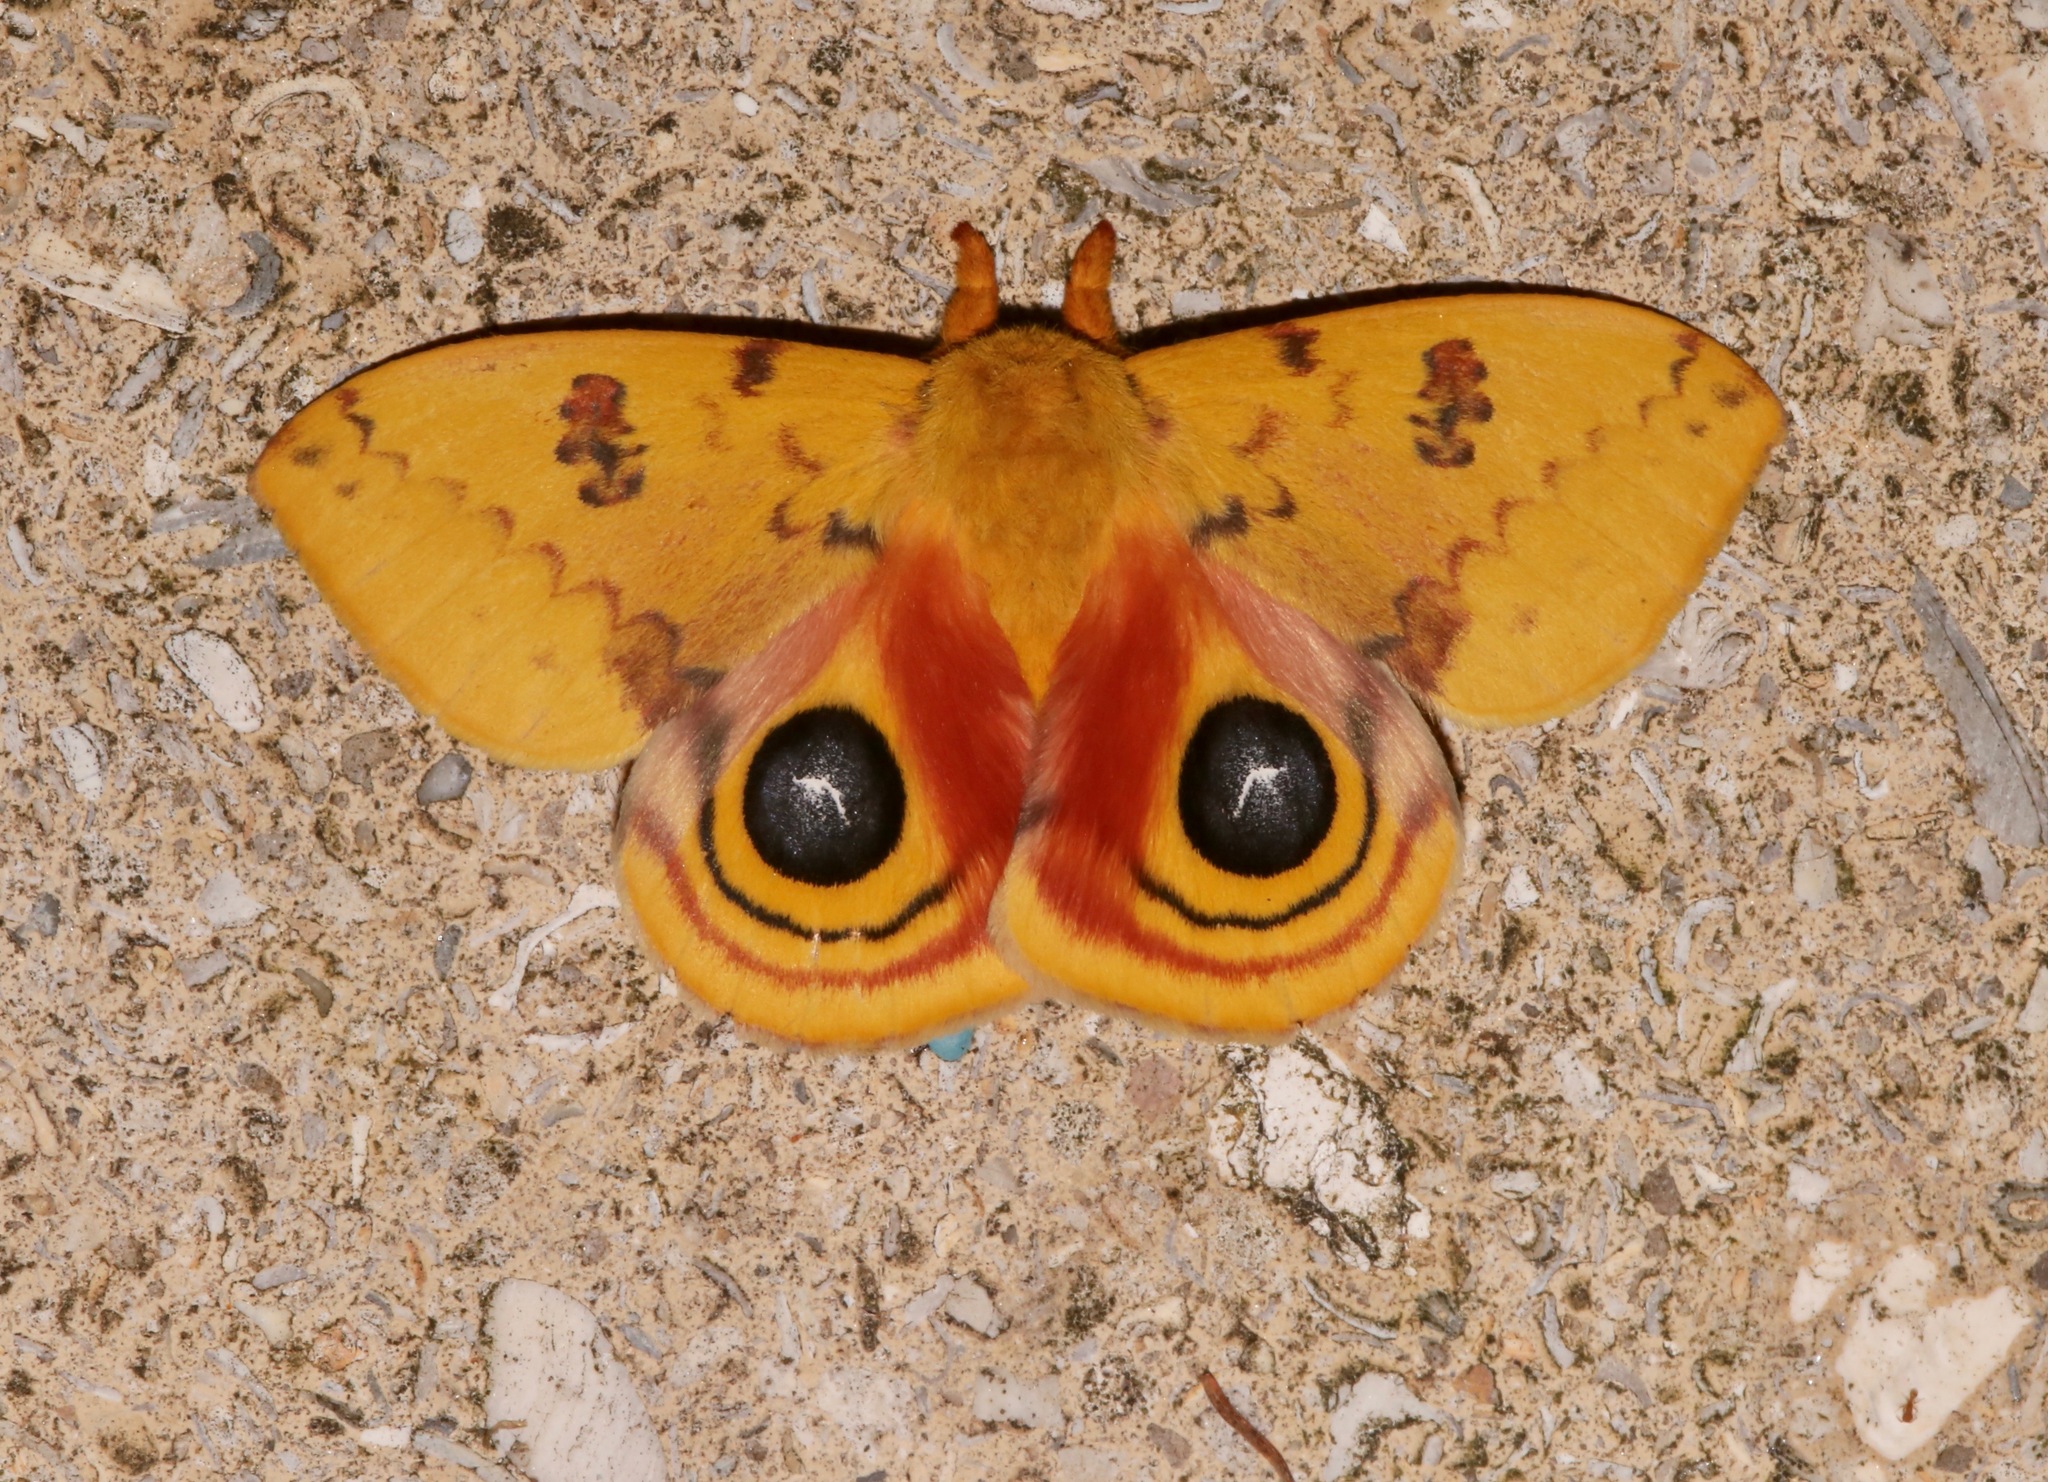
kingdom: Animalia
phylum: Arthropoda
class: Insecta
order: Lepidoptera
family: Saturniidae
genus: Automeris
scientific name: Automeris io
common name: Io moth
